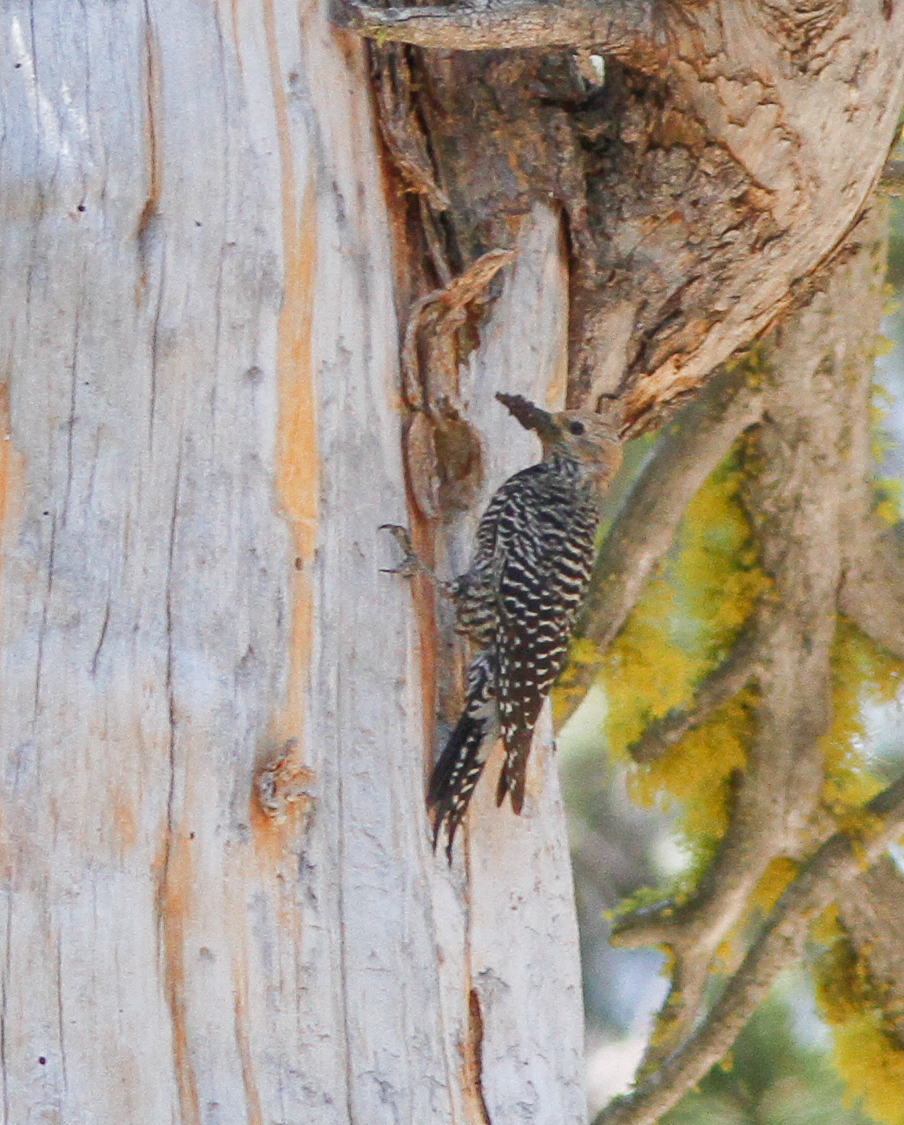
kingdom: Animalia
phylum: Chordata
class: Aves
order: Piciformes
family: Picidae
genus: Sphyrapicus
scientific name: Sphyrapicus thyroideus
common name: Williamson's sapsucker
